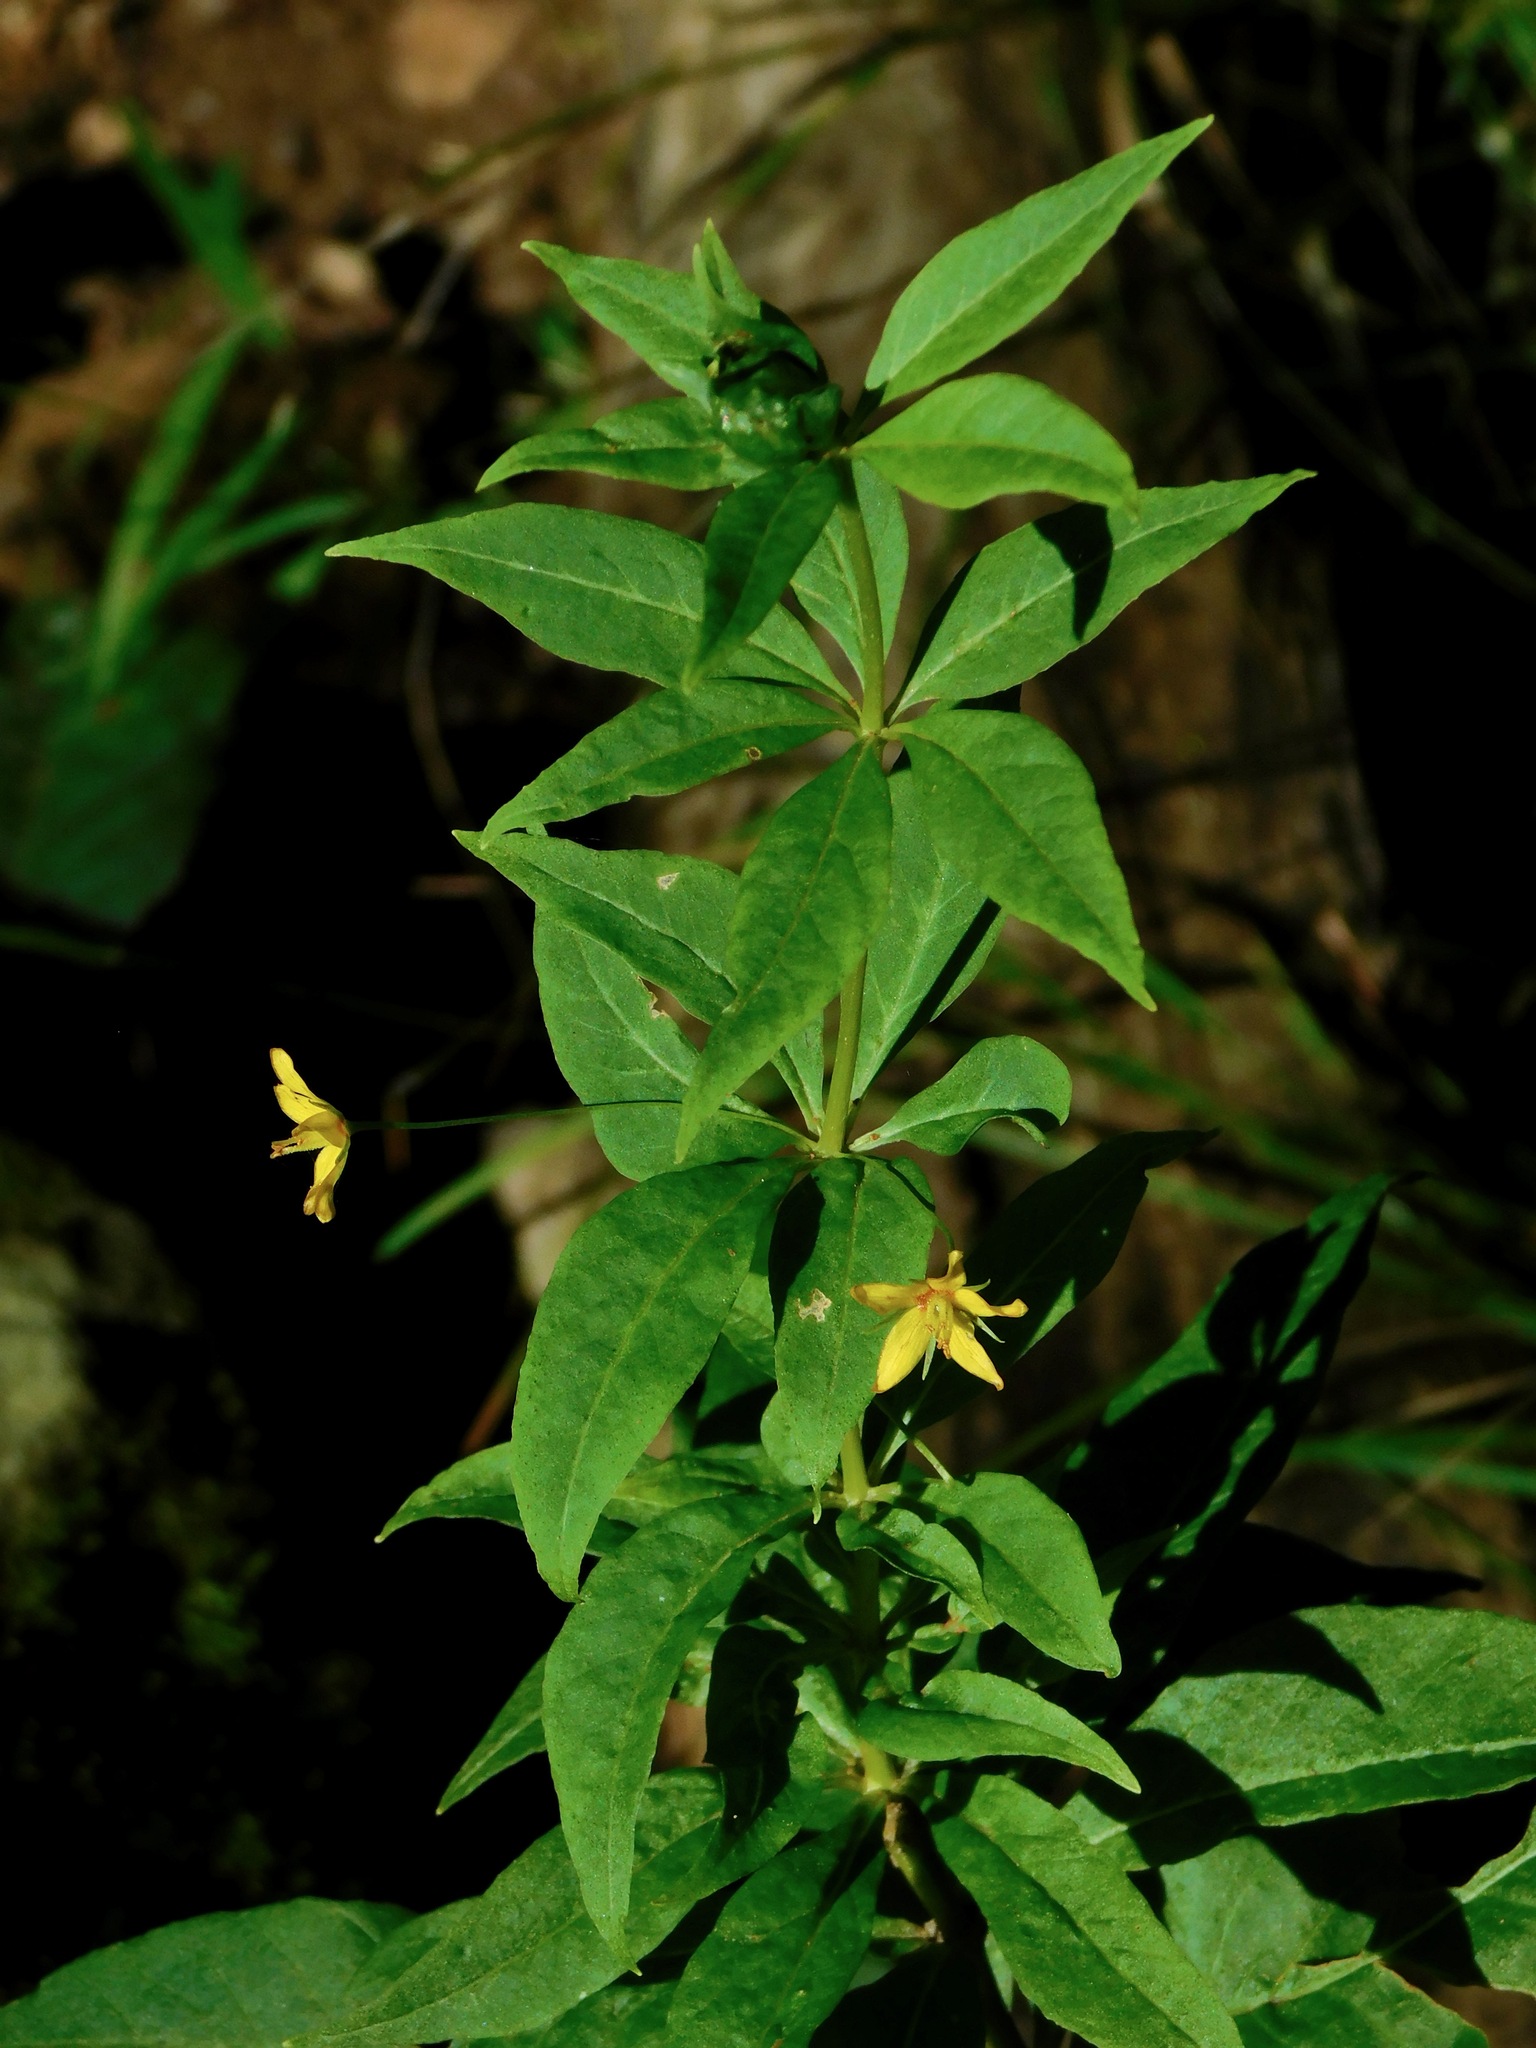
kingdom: Plantae
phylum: Tracheophyta
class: Magnoliopsida
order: Ericales
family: Primulaceae
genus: Lysimachia
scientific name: Lysimachia quadrifolia
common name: Whorled loosestrife
